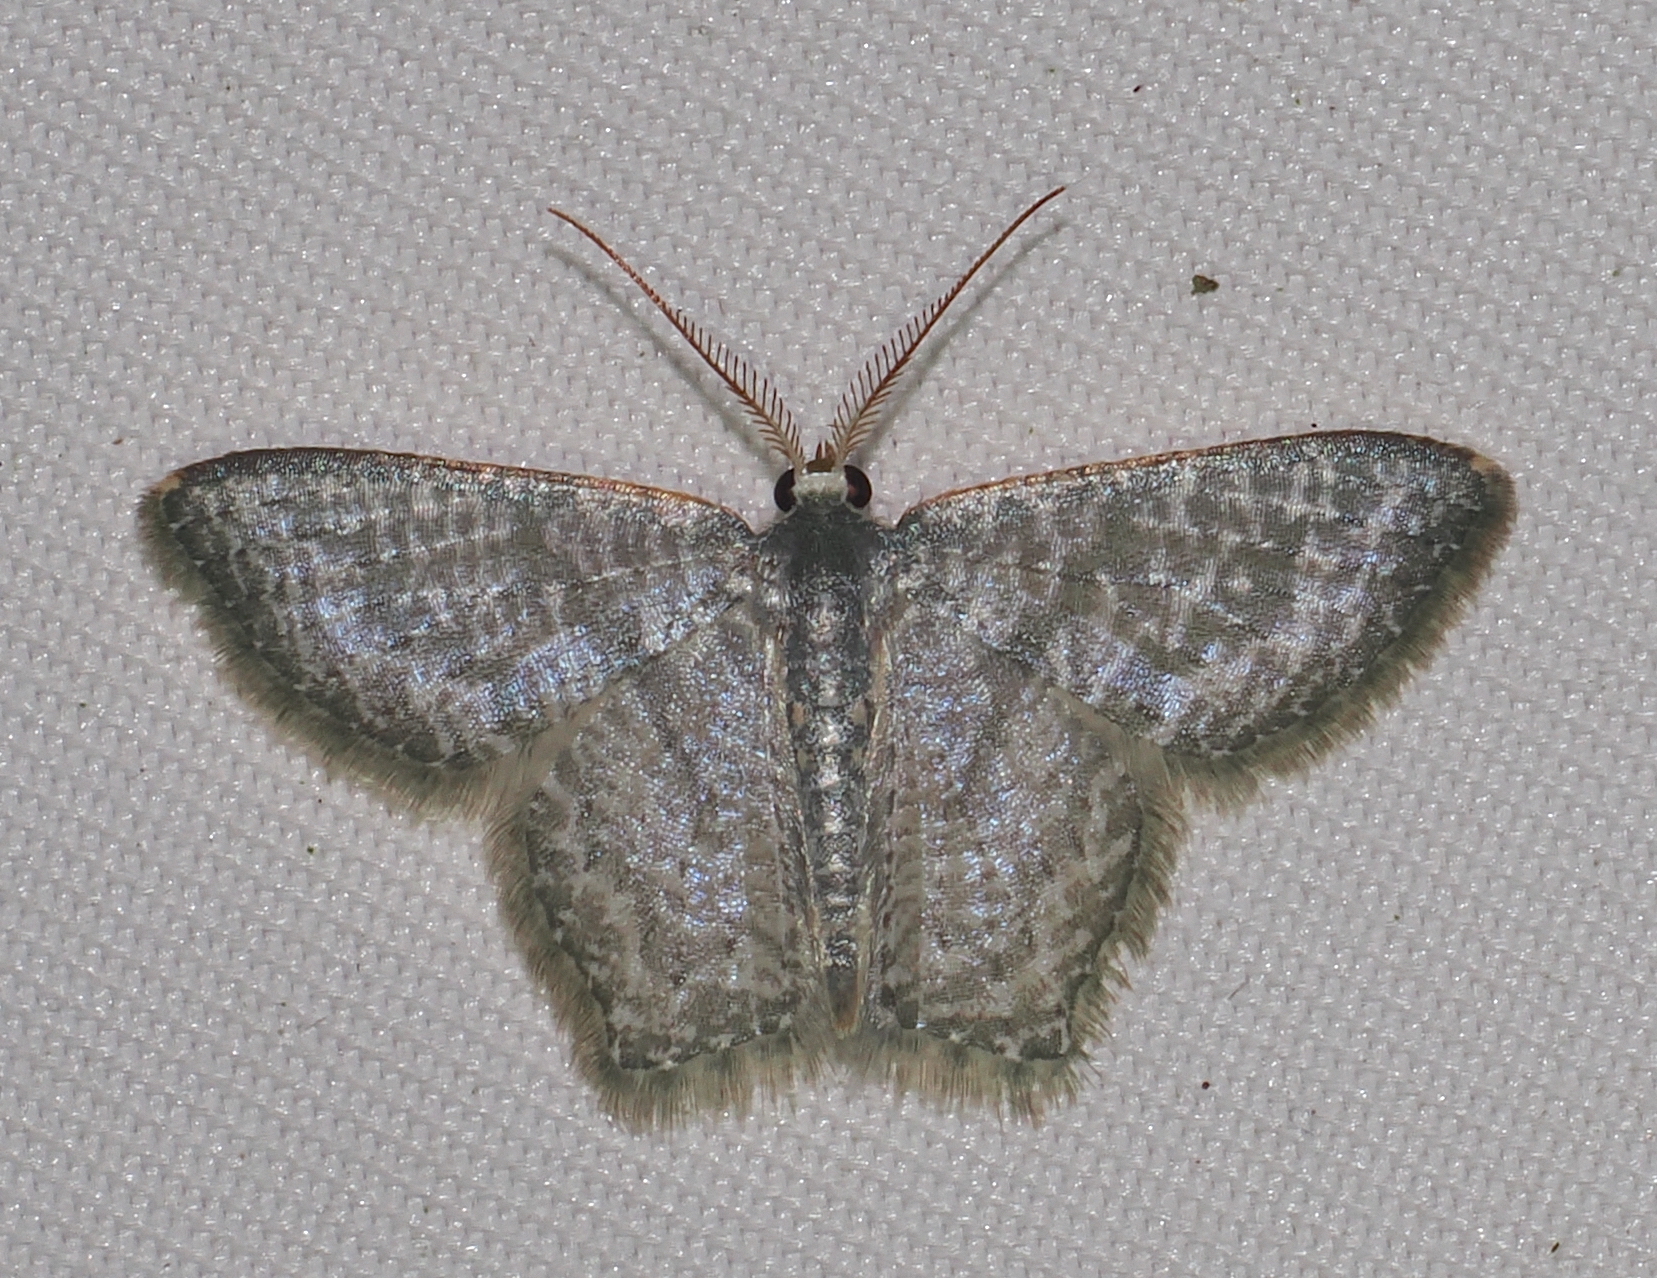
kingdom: Animalia
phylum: Arthropoda
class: Insecta
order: Lepidoptera
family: Geometridae
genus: Chloropteryx
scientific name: Chloropteryx opalaria
